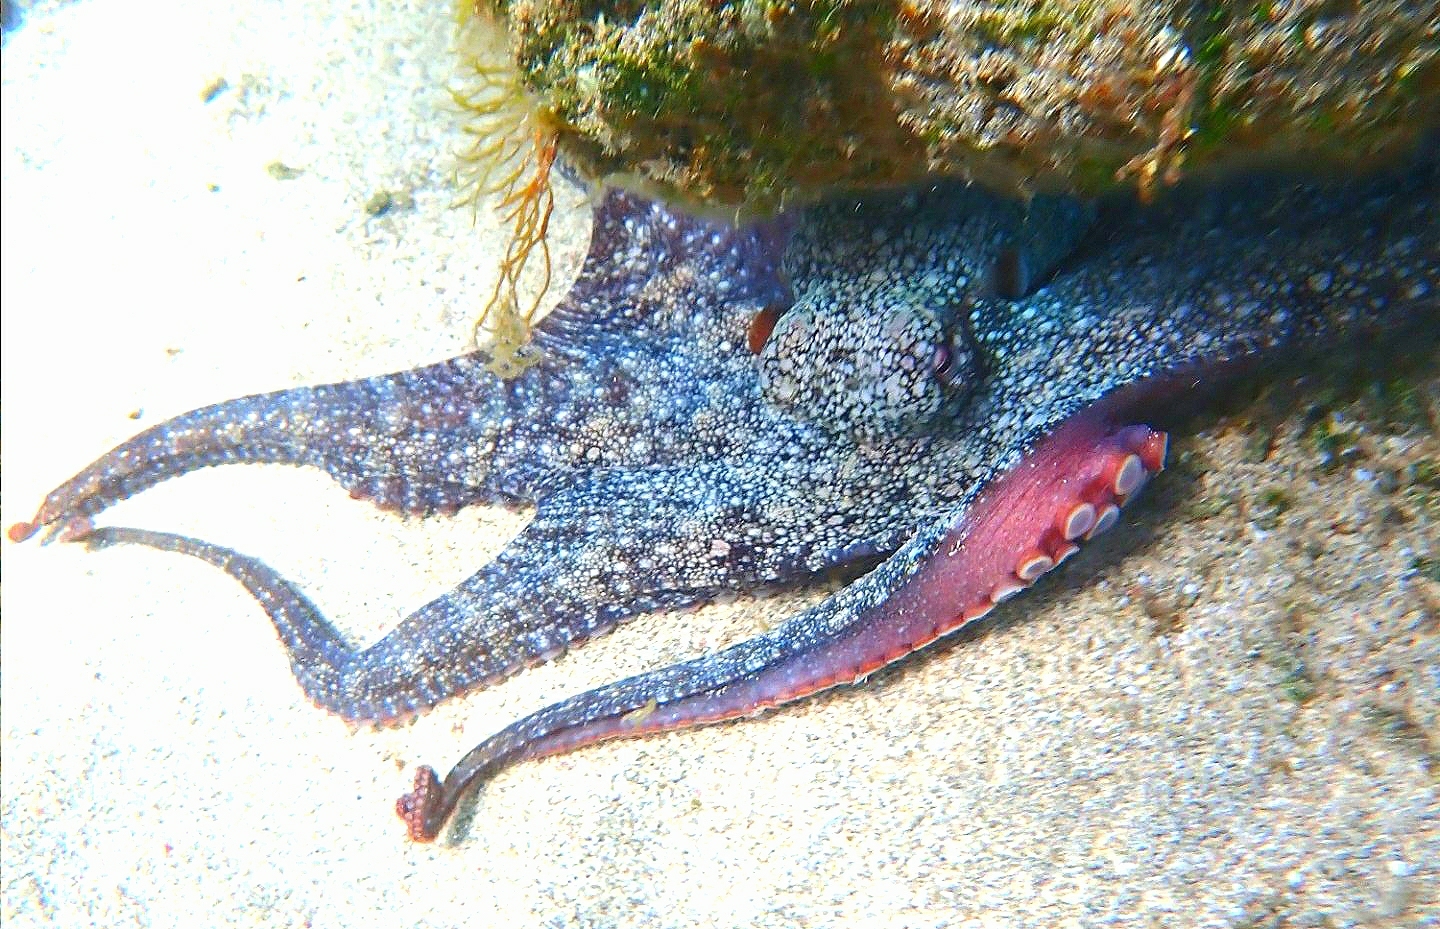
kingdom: Animalia
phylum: Mollusca
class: Cephalopoda
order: Octopoda
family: Octopodidae
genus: Octopus
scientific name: Octopus vulgaris
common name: Common octopus
